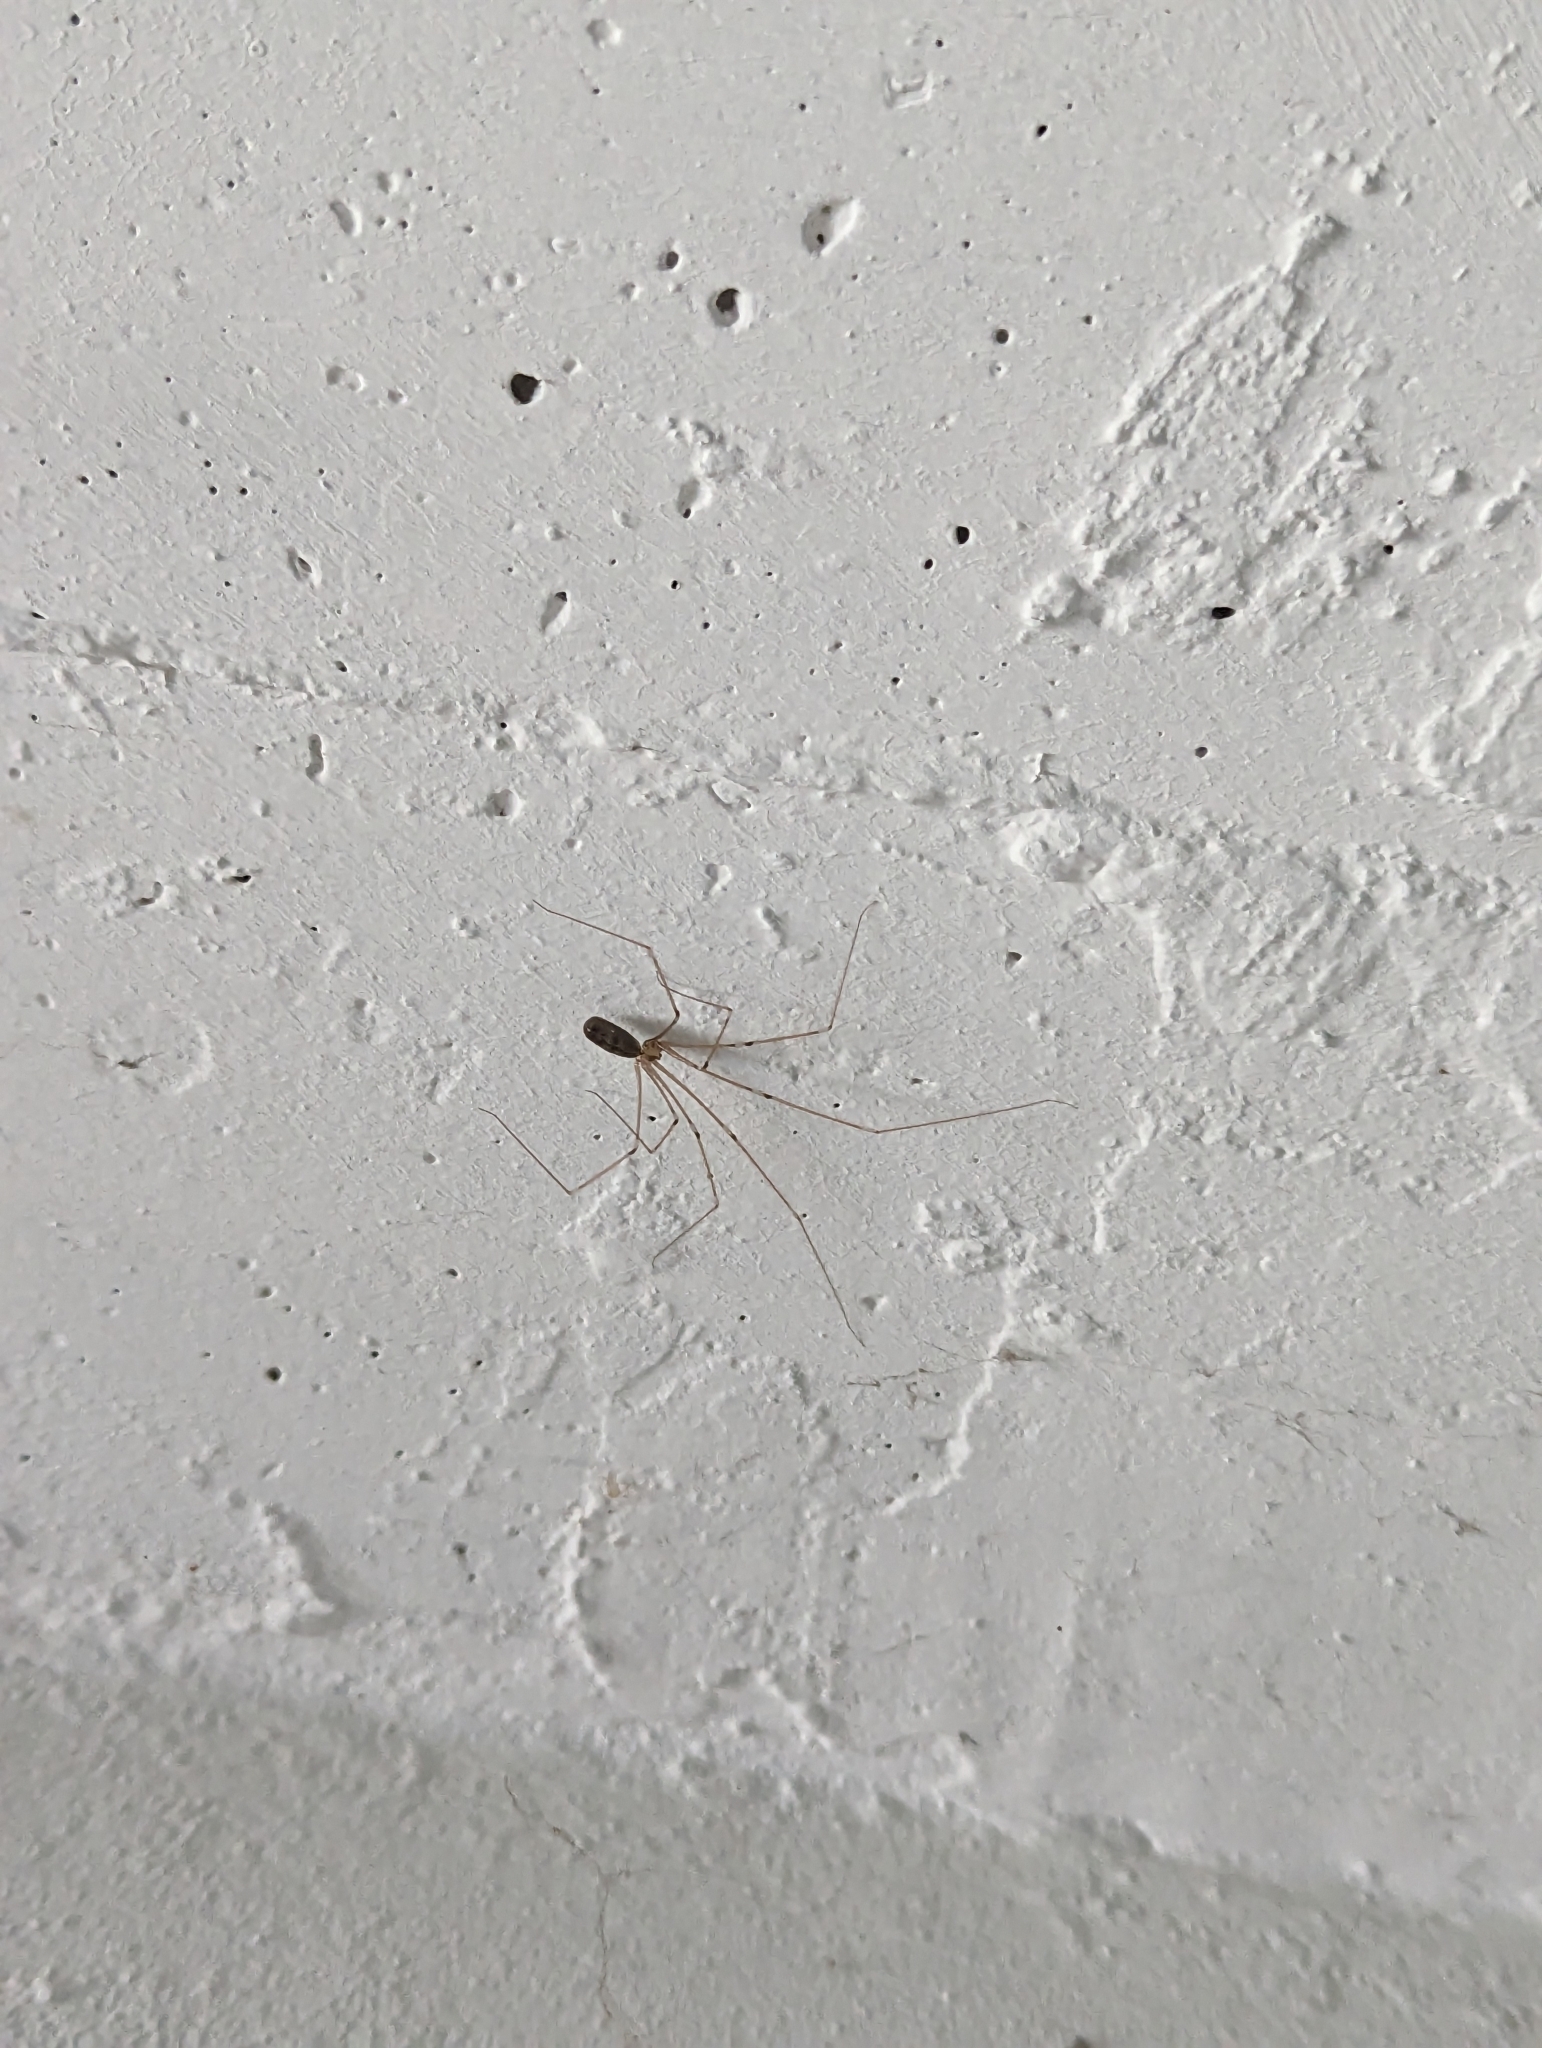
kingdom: Animalia
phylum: Arthropoda
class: Arachnida
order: Araneae
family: Pholcidae
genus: Pholcus
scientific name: Pholcus phalangioides
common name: Longbodied cellar spider
